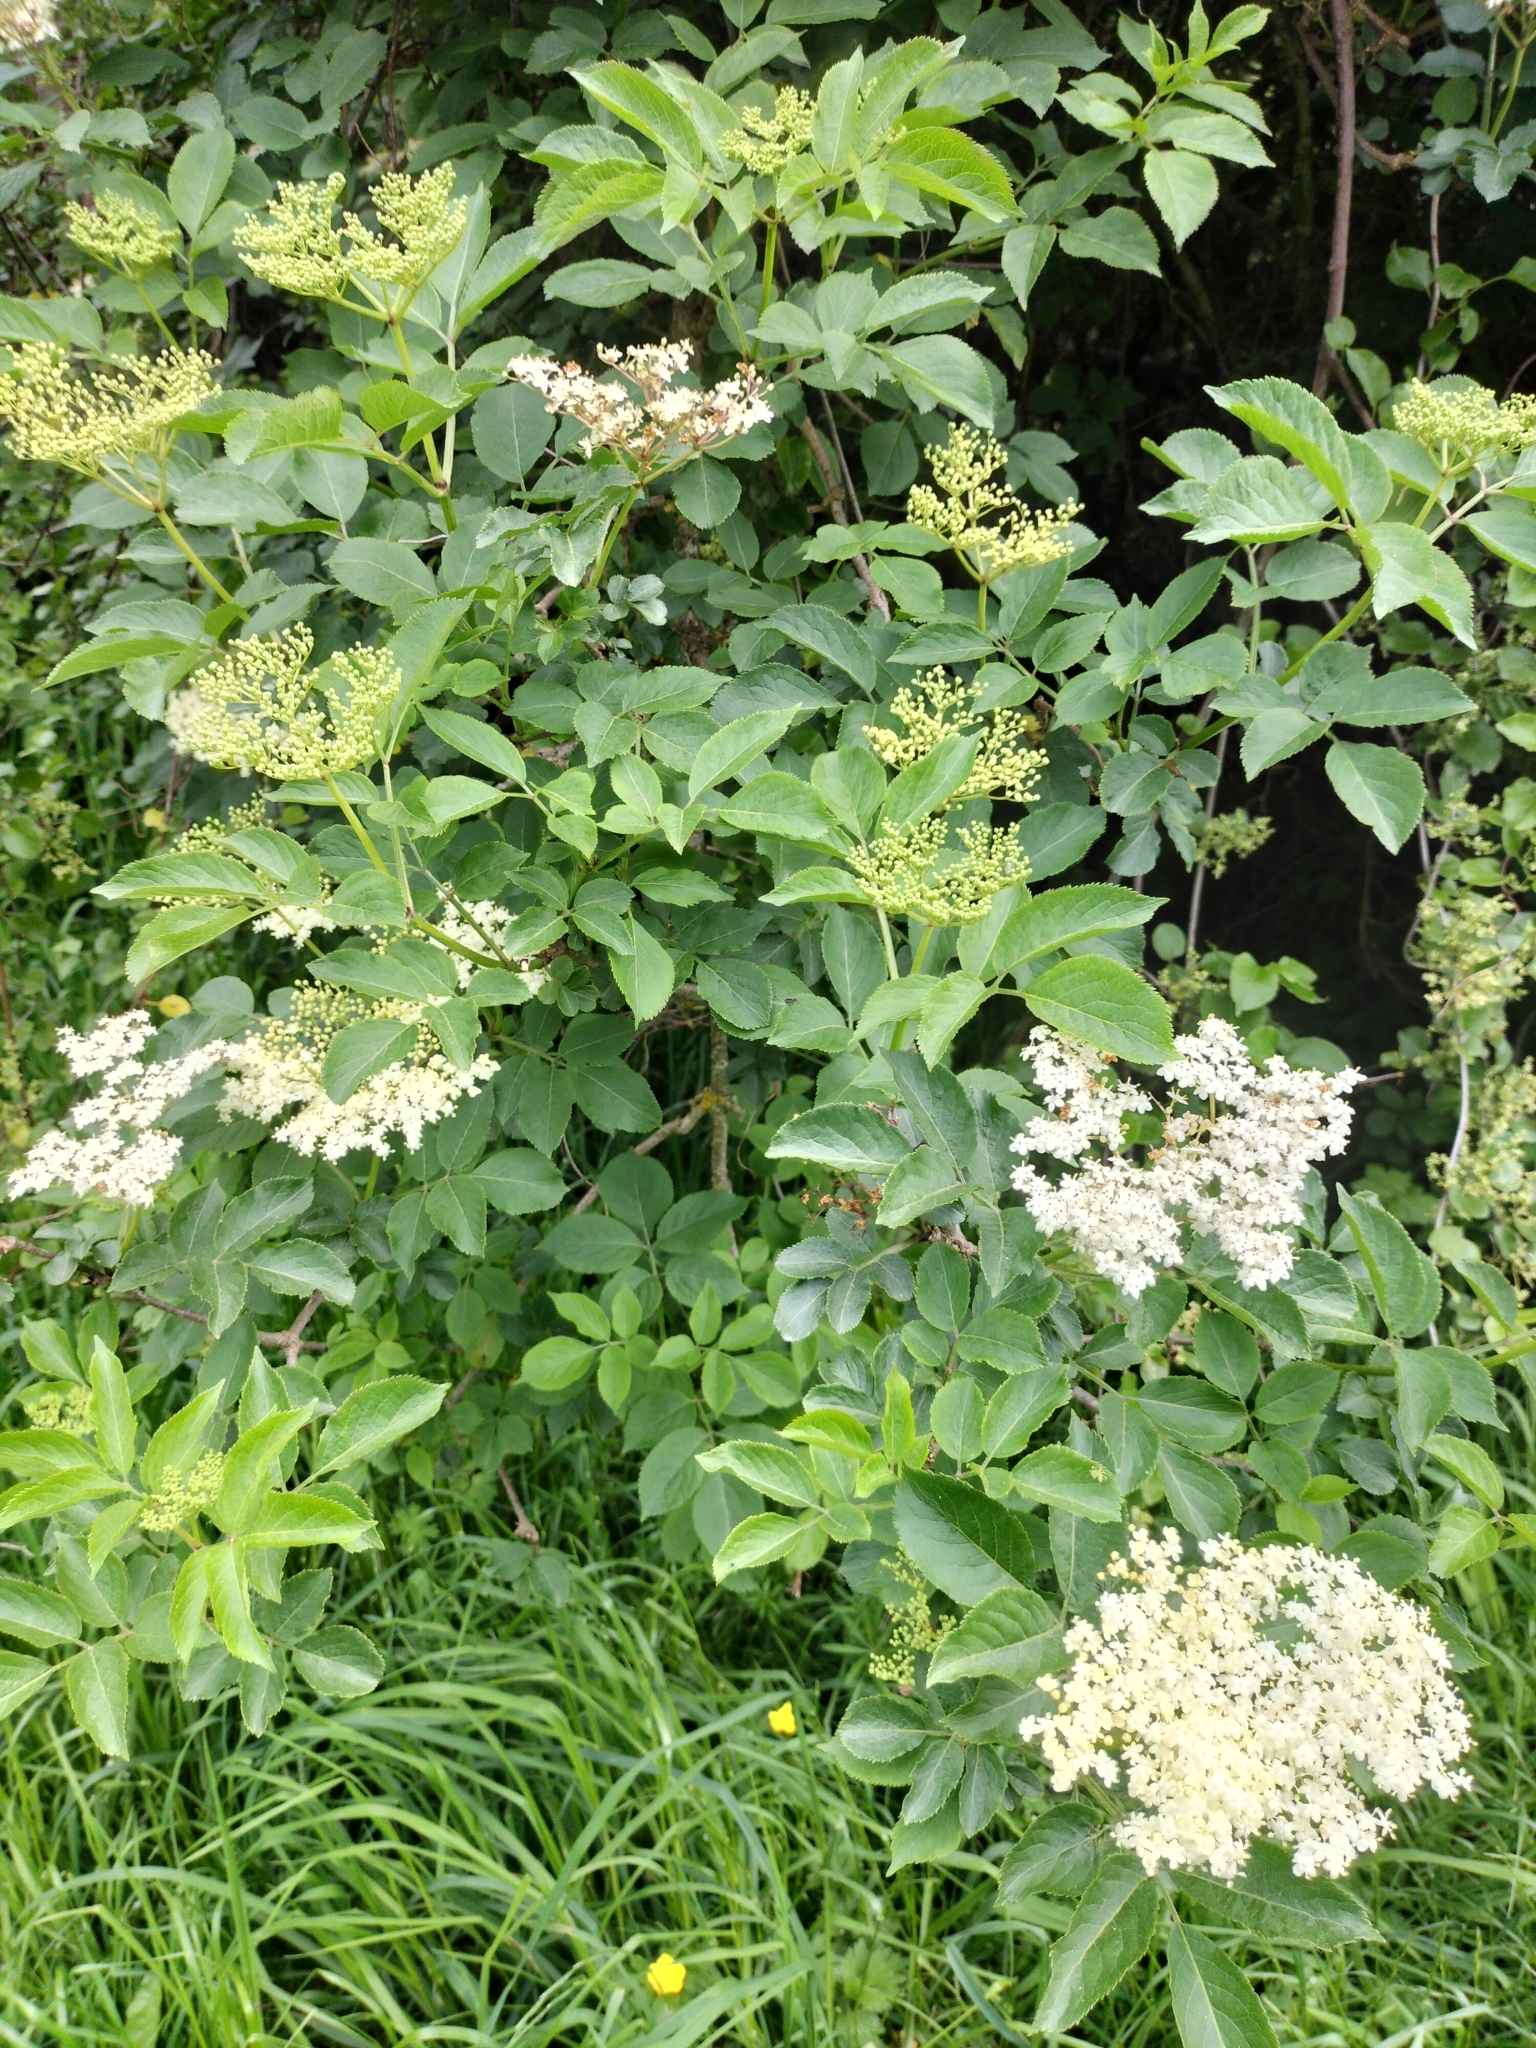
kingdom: Plantae
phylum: Tracheophyta
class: Magnoliopsida
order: Dipsacales
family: Viburnaceae
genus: Sambucus
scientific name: Sambucus nigra
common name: Elder
